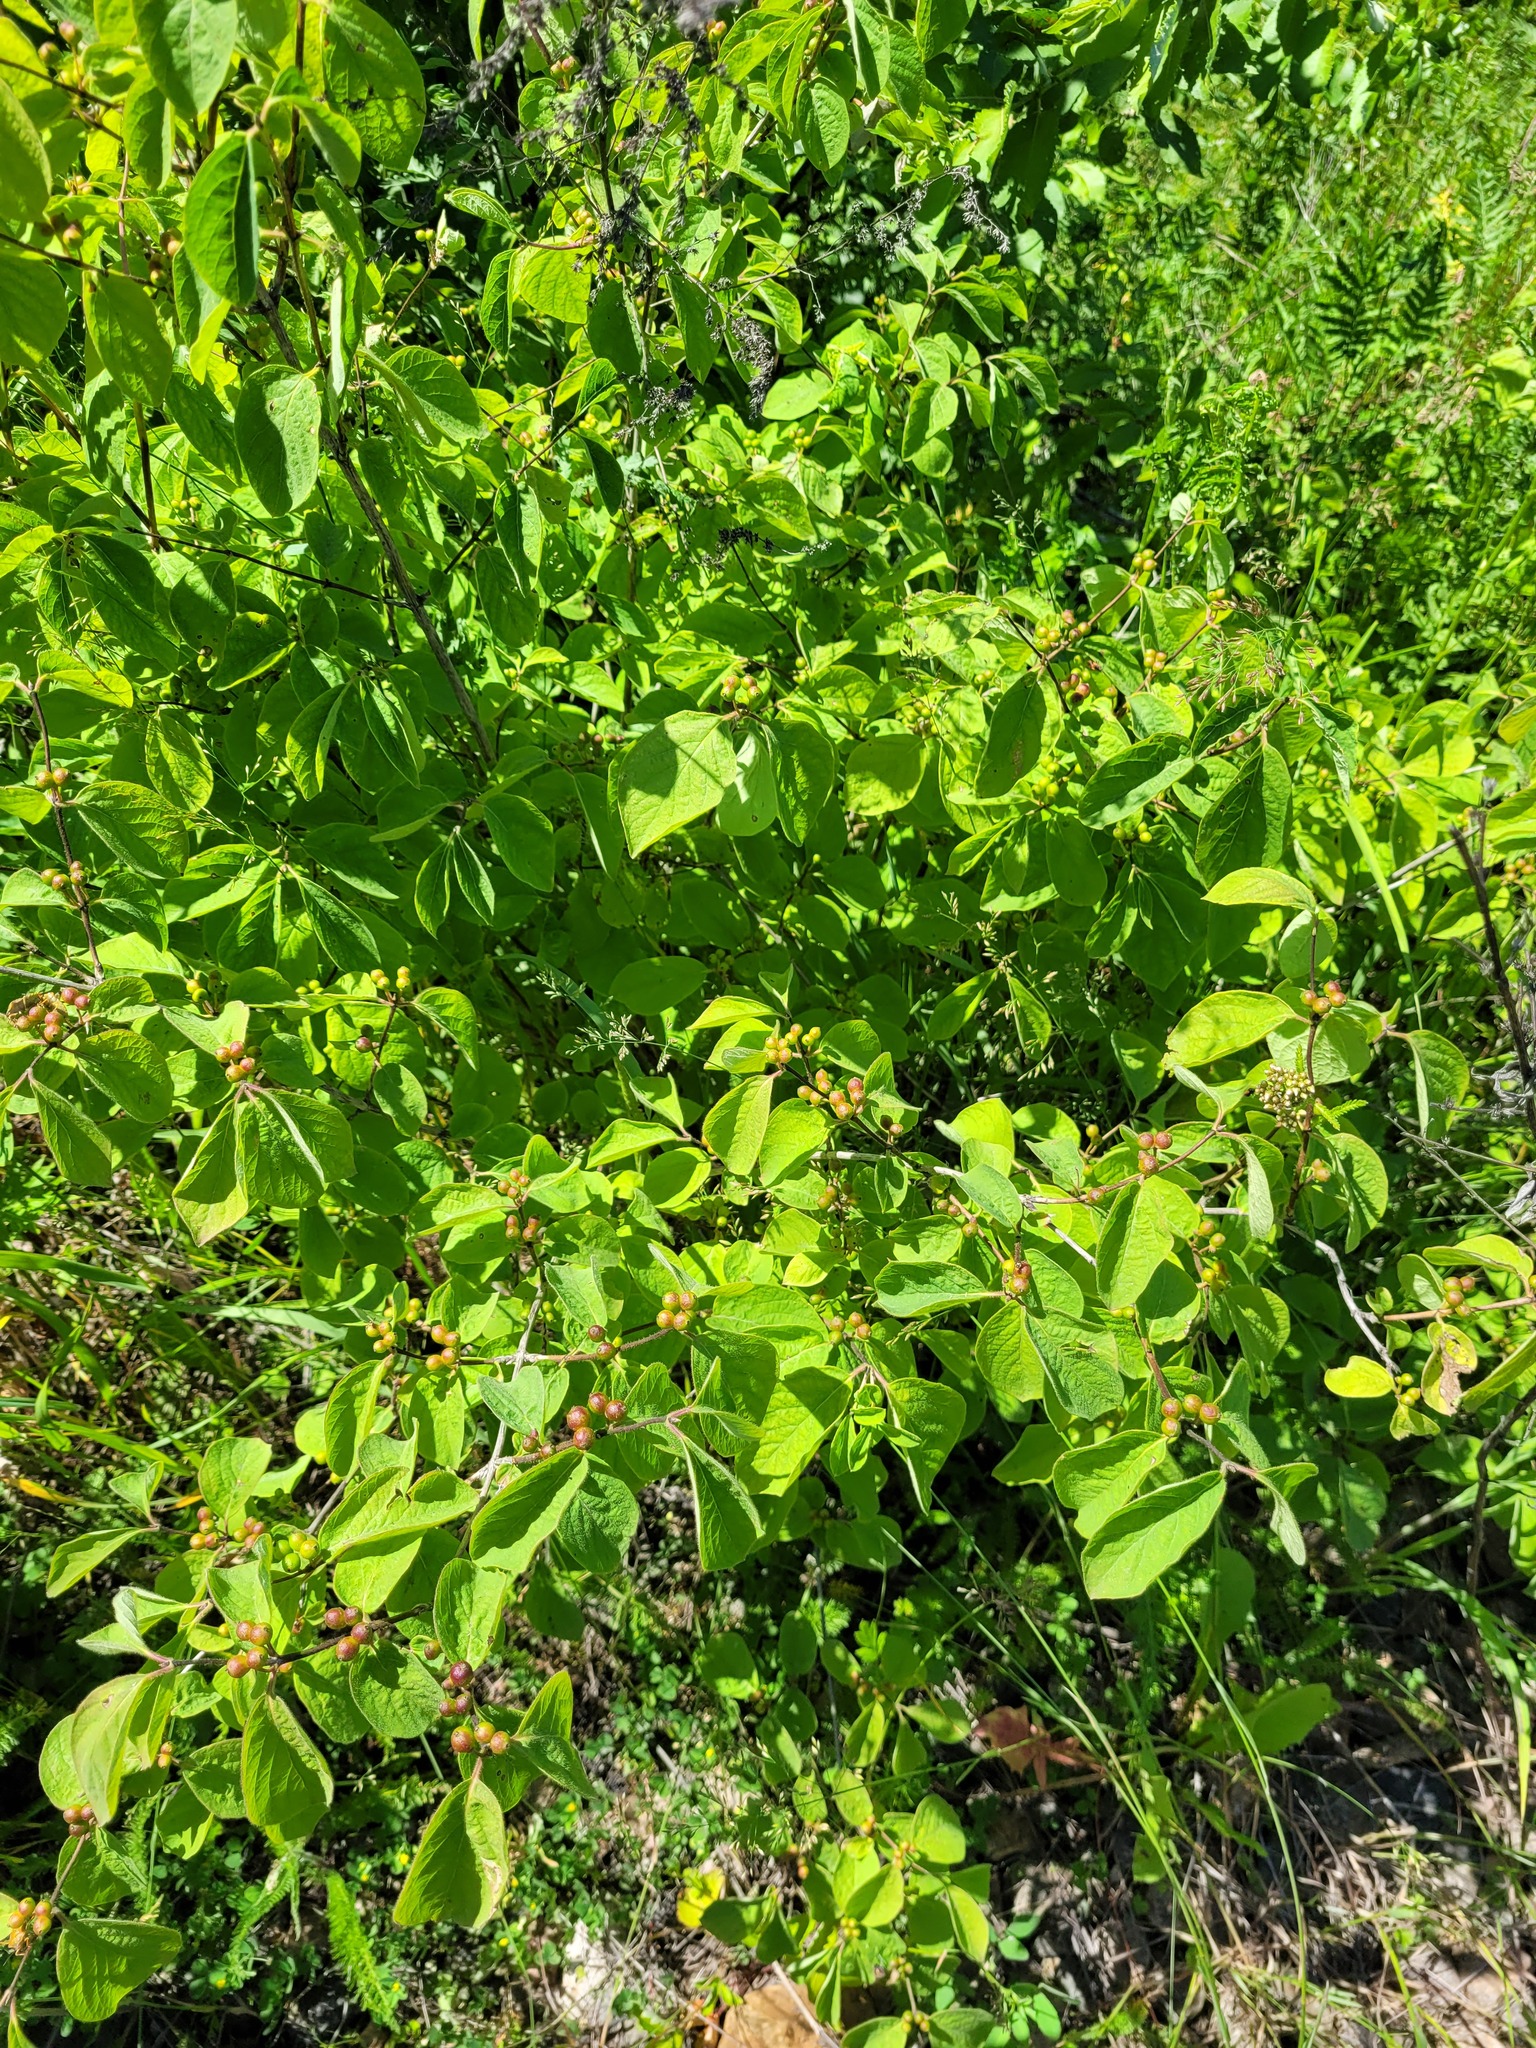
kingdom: Plantae
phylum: Tracheophyta
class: Magnoliopsida
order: Dipsacales
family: Caprifoliaceae
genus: Lonicera
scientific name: Lonicera xylosteum
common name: Fly honeysuckle
